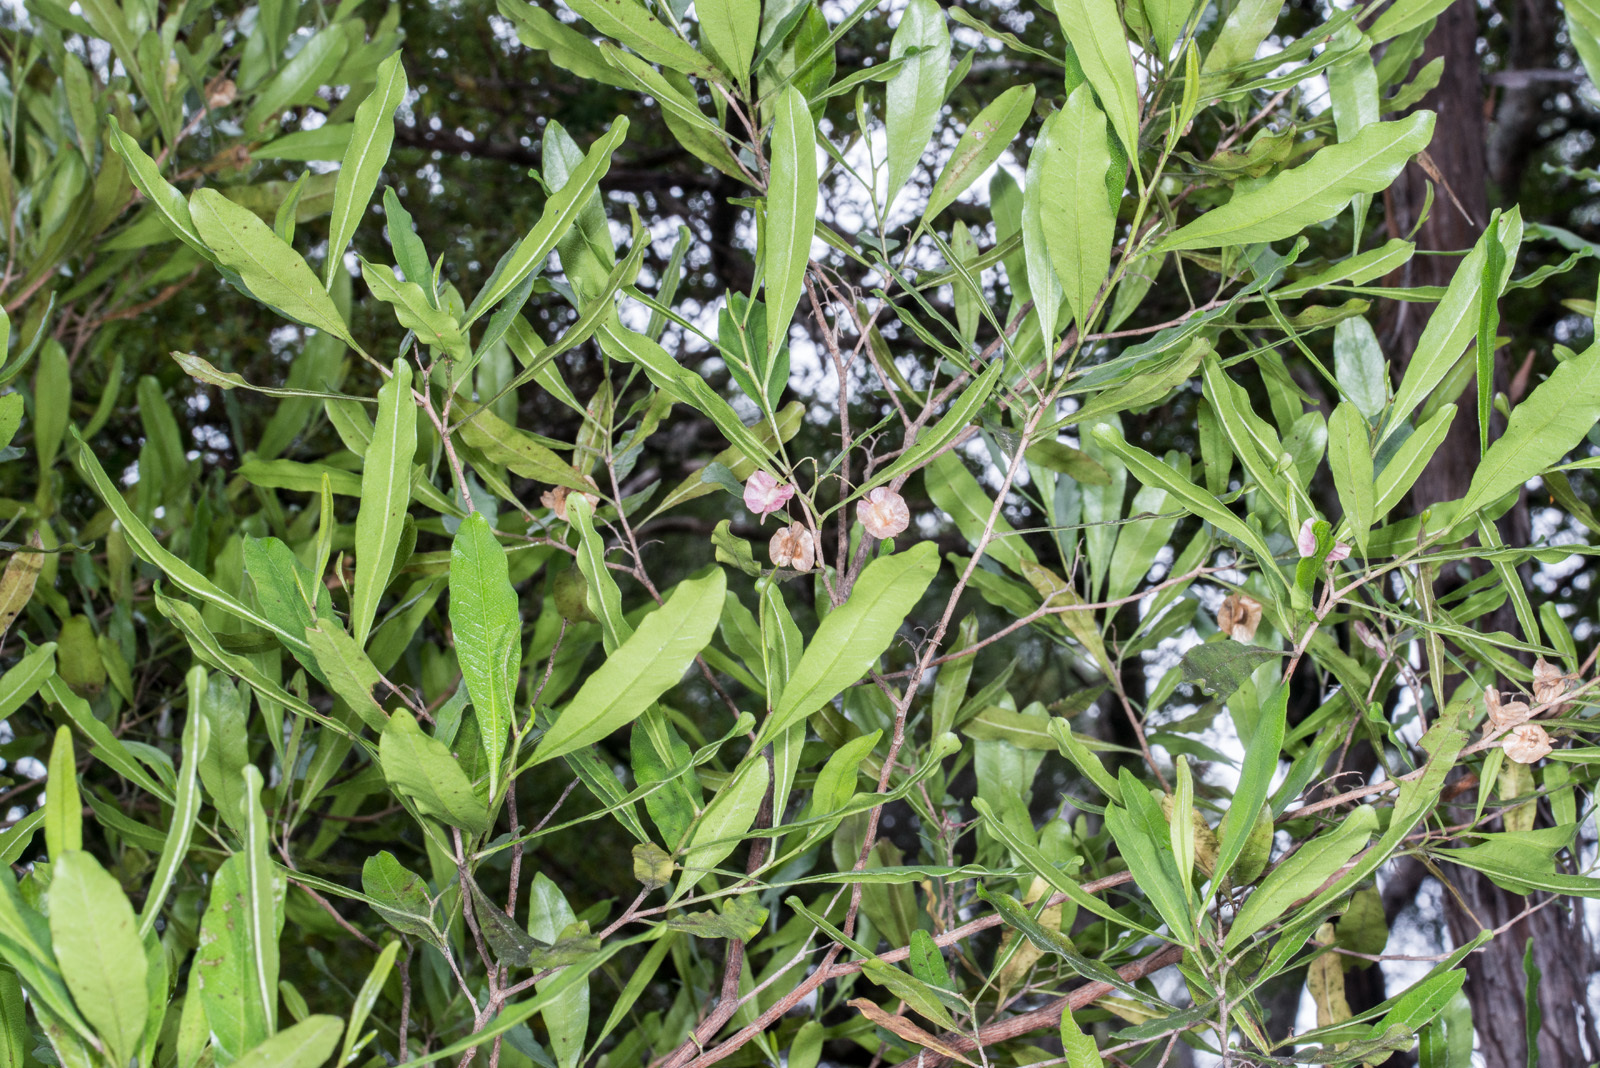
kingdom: Plantae
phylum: Tracheophyta
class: Magnoliopsida
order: Sapindales
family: Sapindaceae
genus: Dodonaea
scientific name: Dodonaea viscosa
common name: Hopbush
